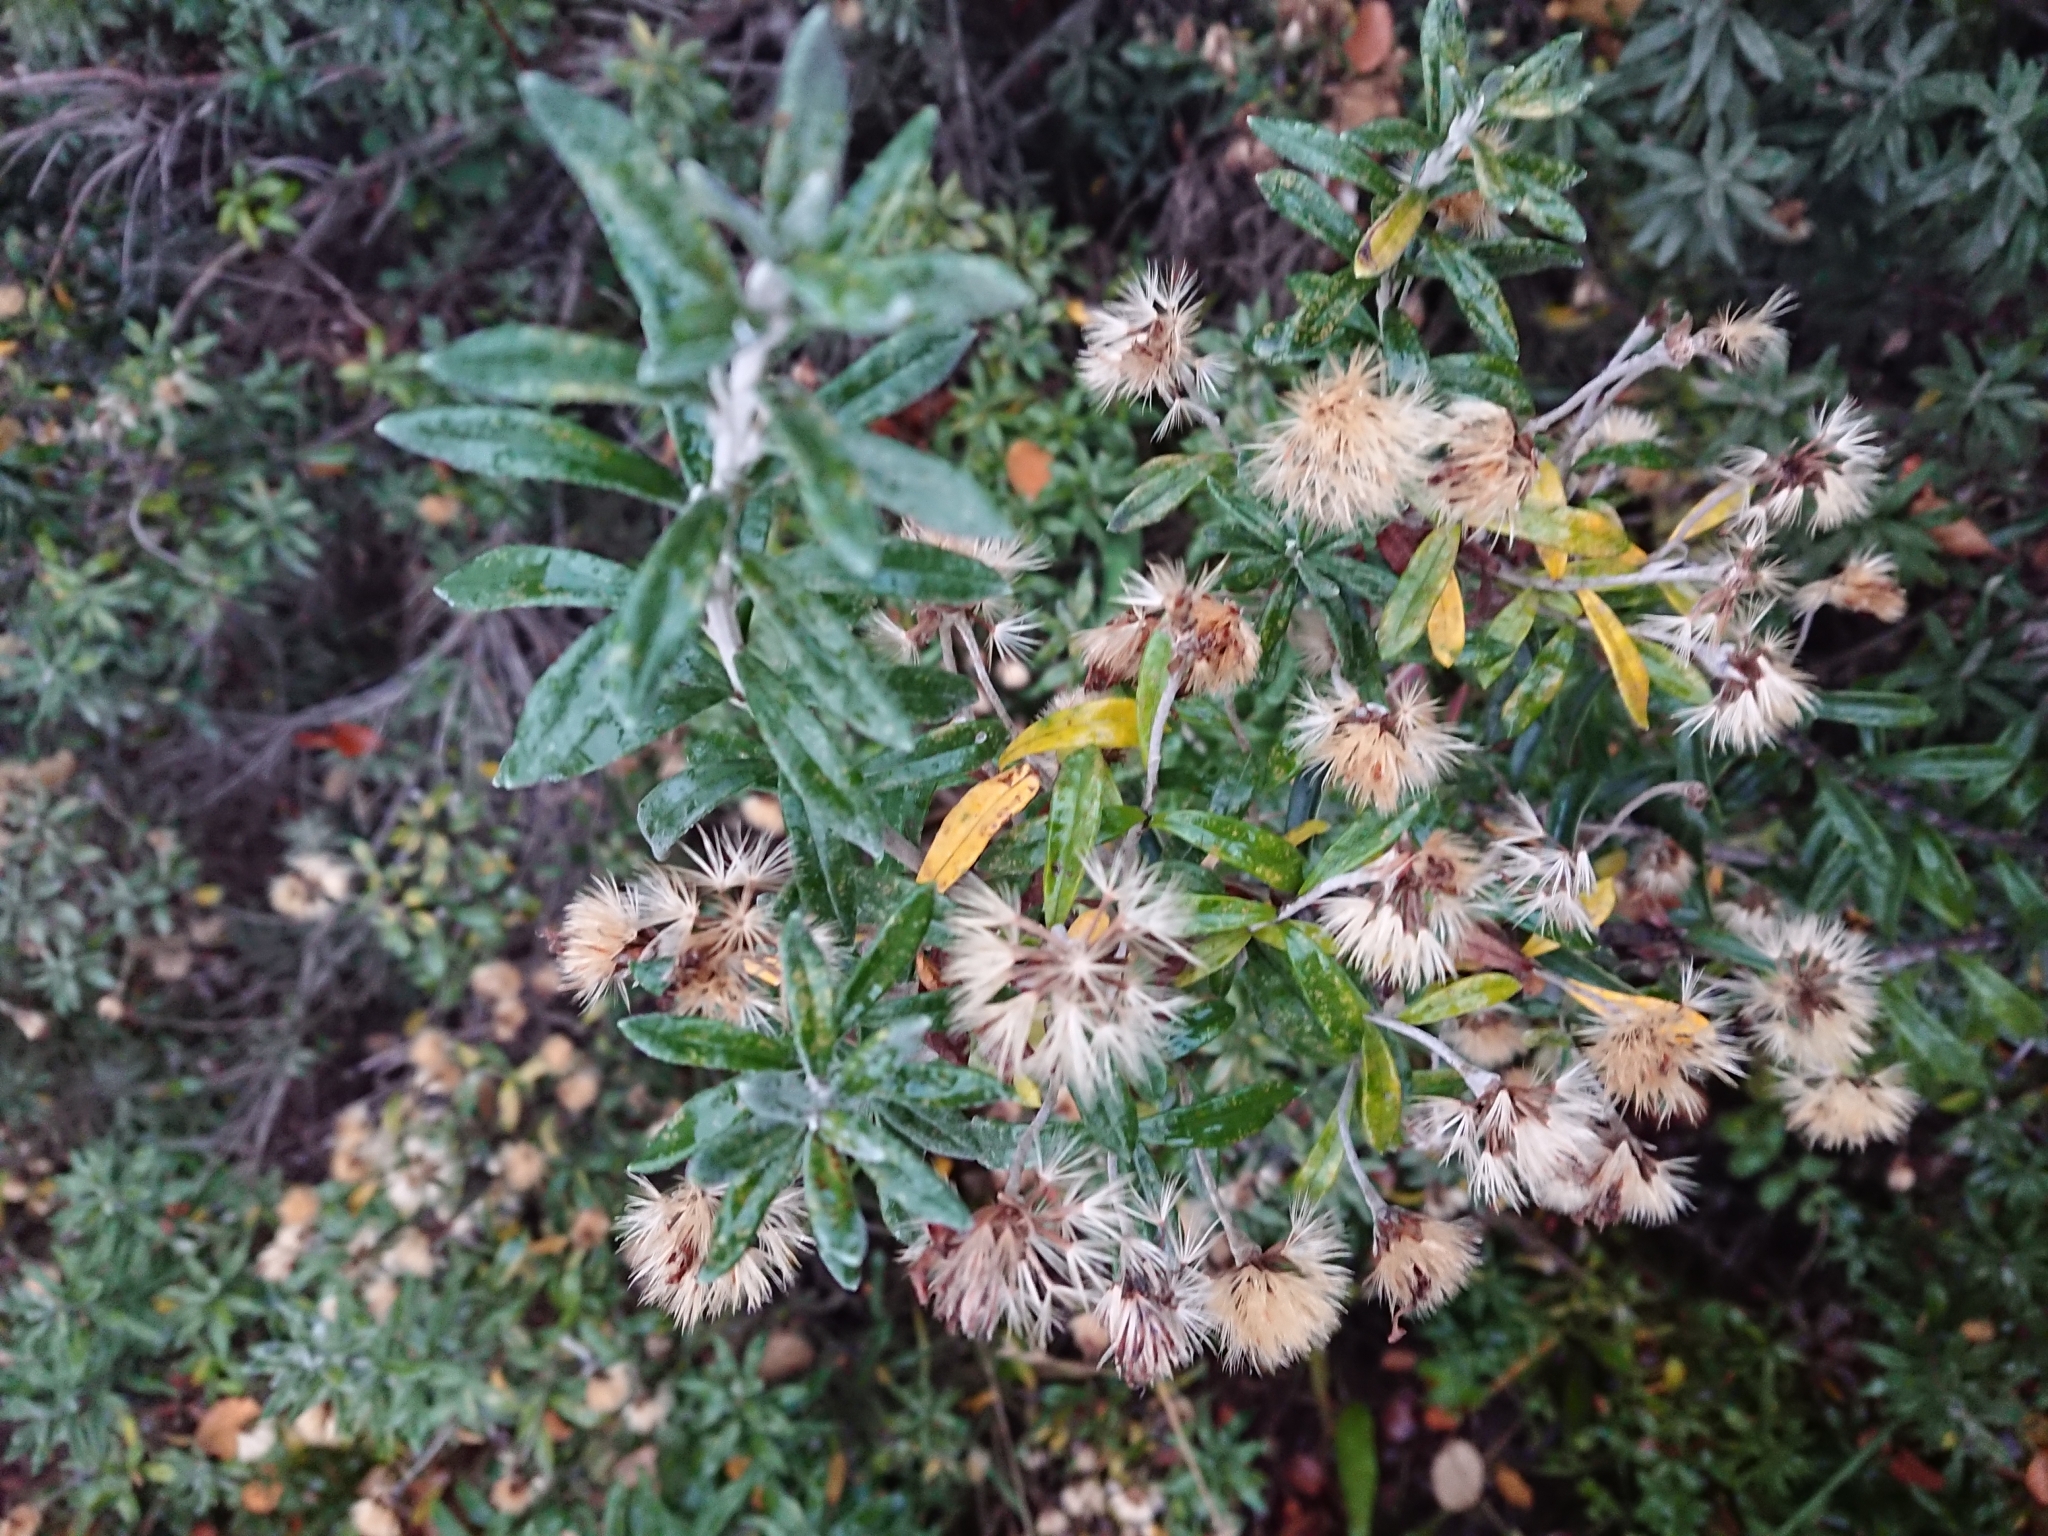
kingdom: Plantae
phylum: Tracheophyta
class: Magnoliopsida
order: Asterales
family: Asteraceae
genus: Chiliotrichum
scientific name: Chiliotrichum diffusum
